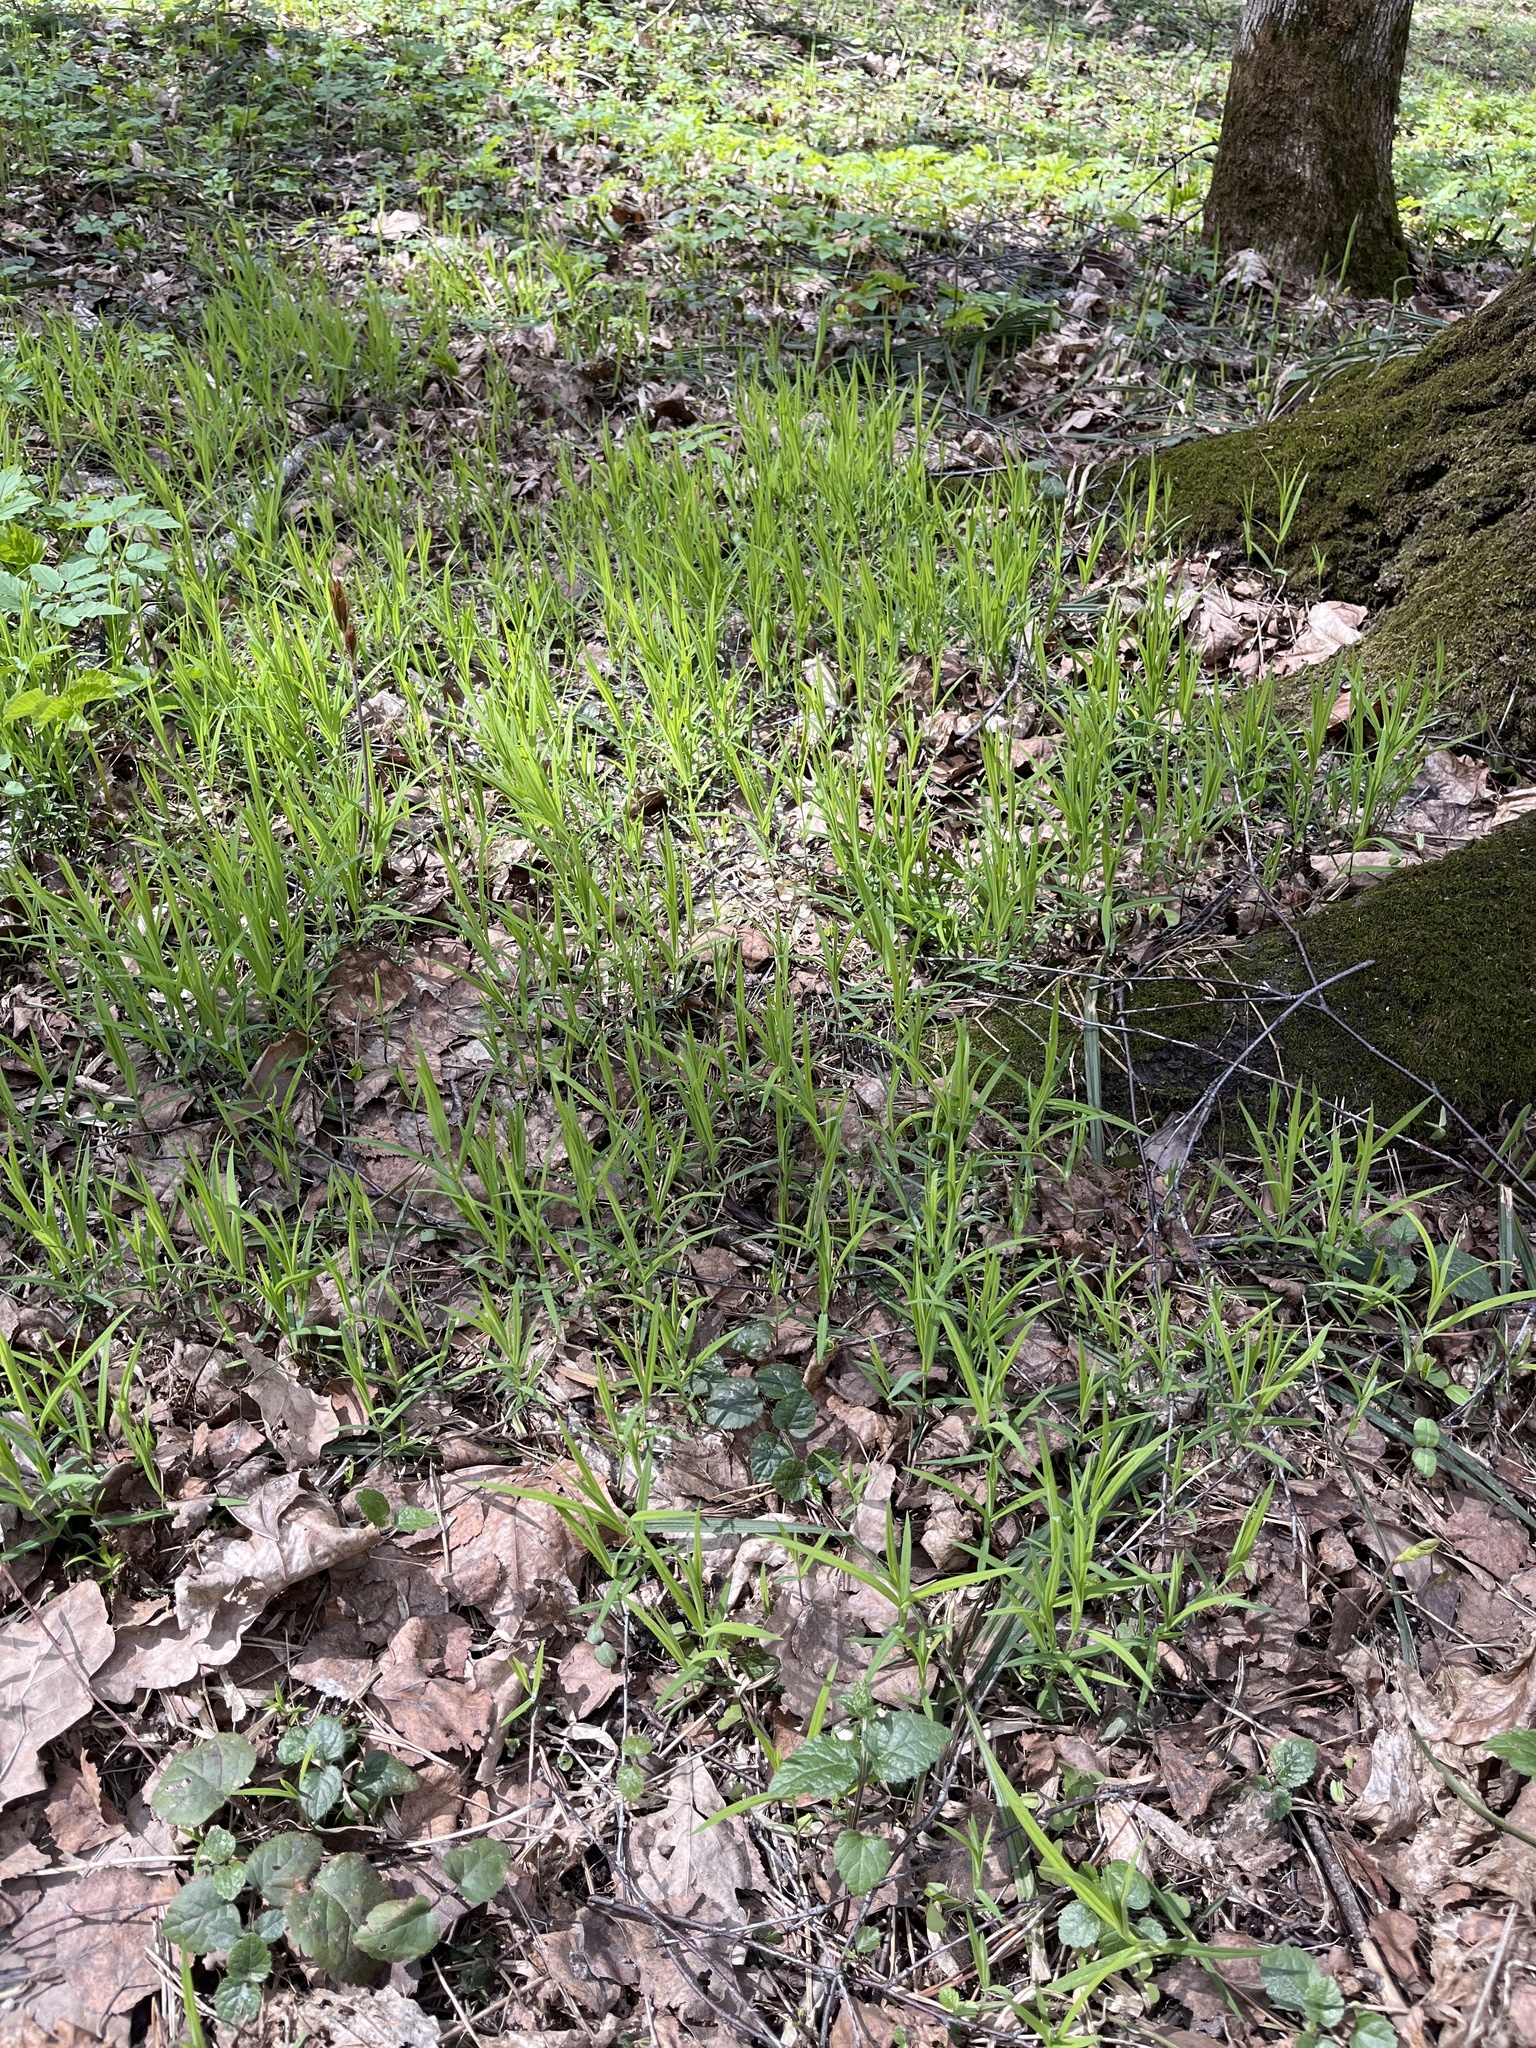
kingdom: Plantae
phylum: Tracheophyta
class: Magnoliopsida
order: Caryophyllales
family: Caryophyllaceae
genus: Rabelera
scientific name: Rabelera holostea
